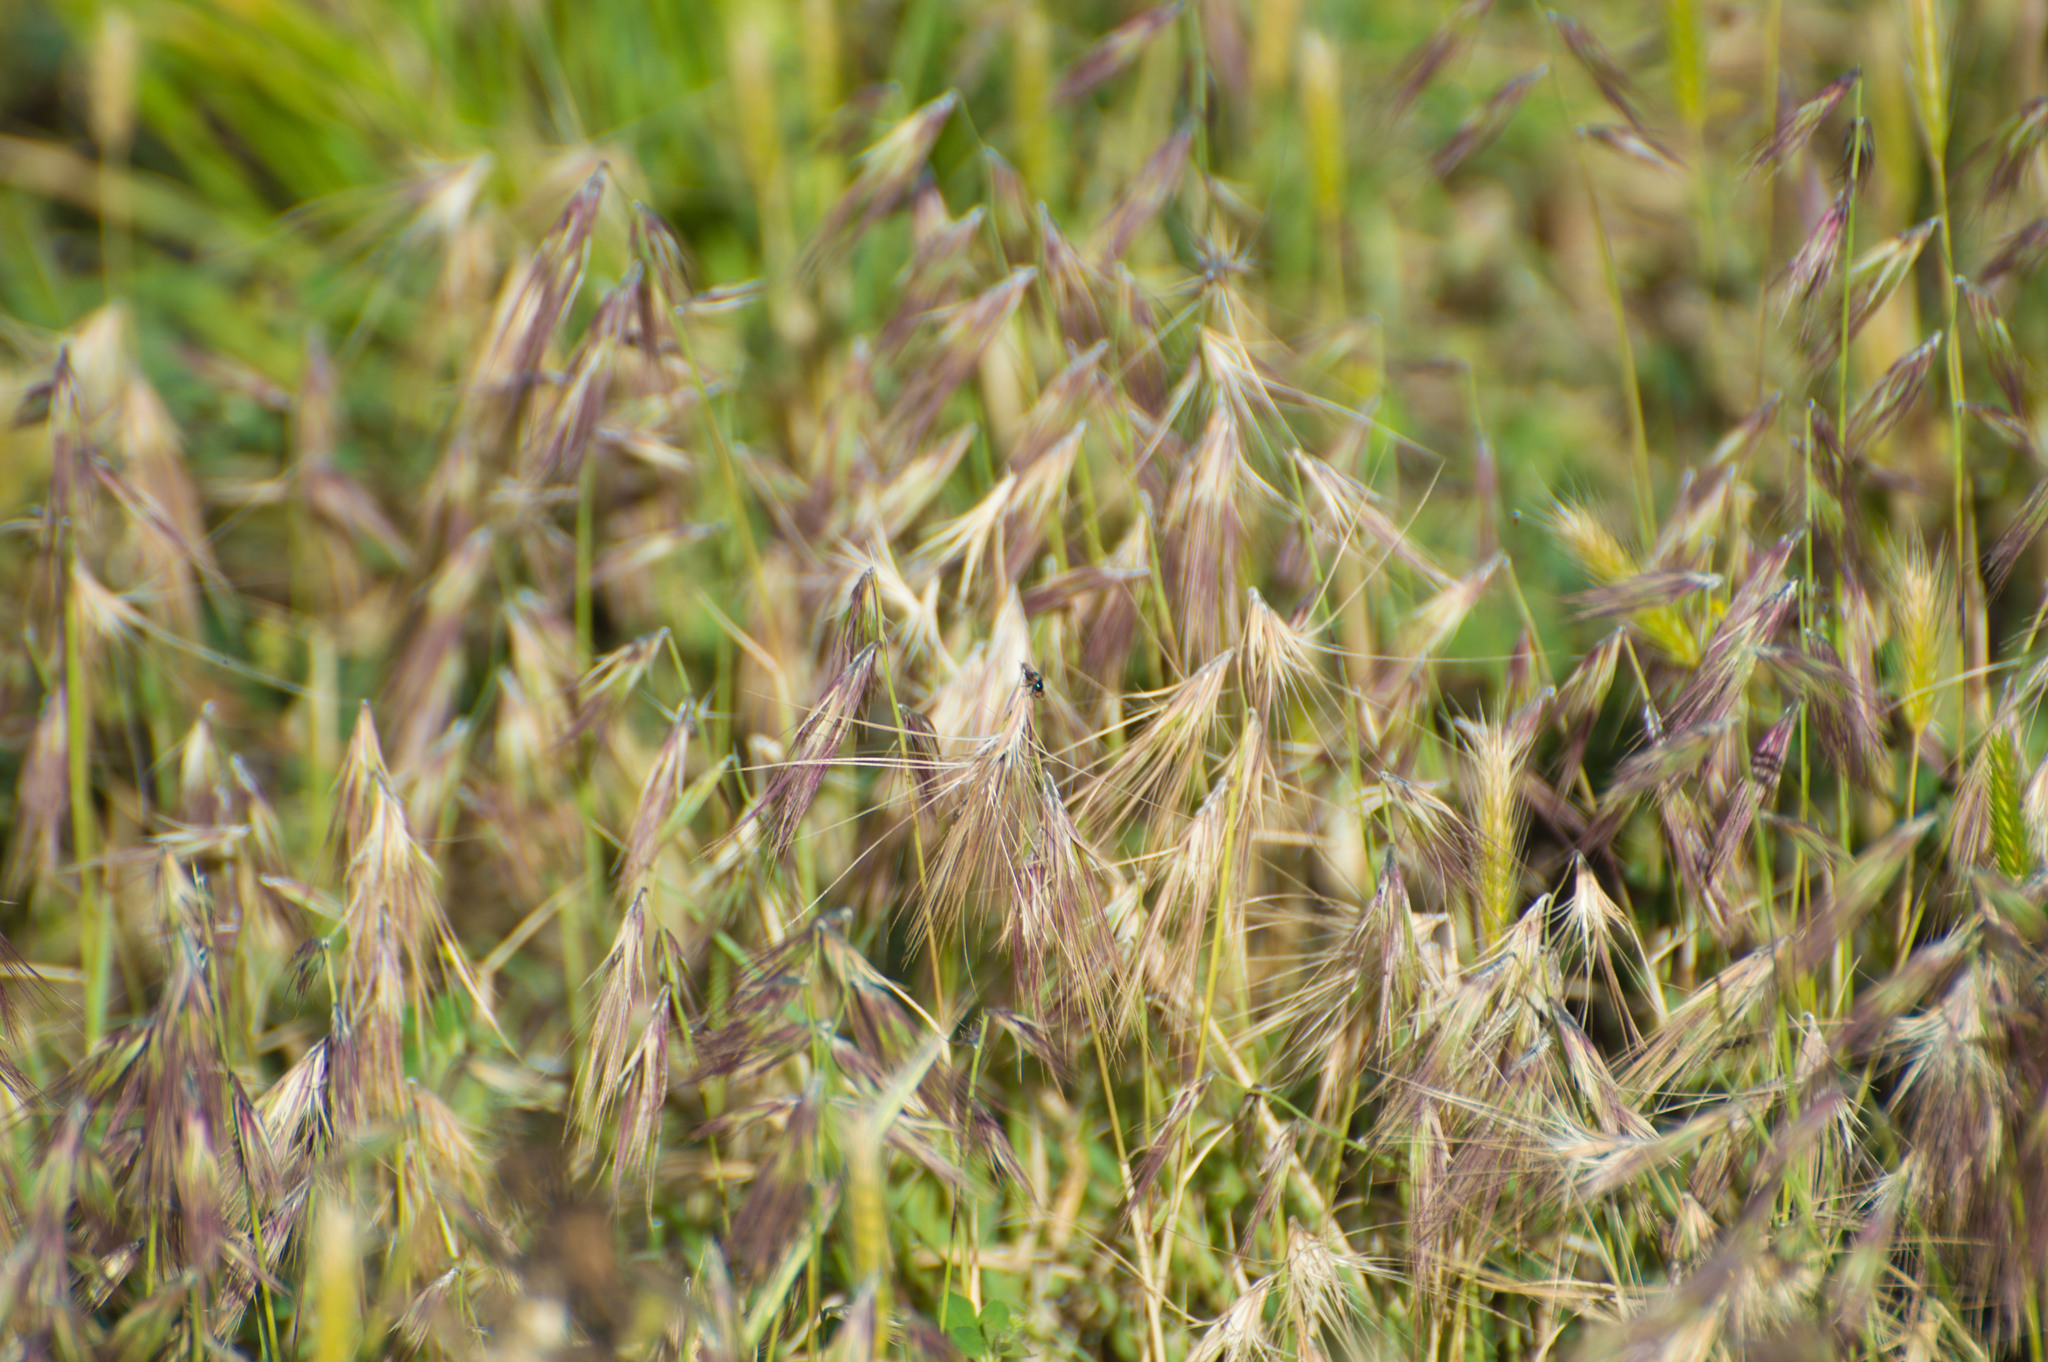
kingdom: Plantae
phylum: Tracheophyta
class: Liliopsida
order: Poales
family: Poaceae
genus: Bouteloua
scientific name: Bouteloua megapotamica
